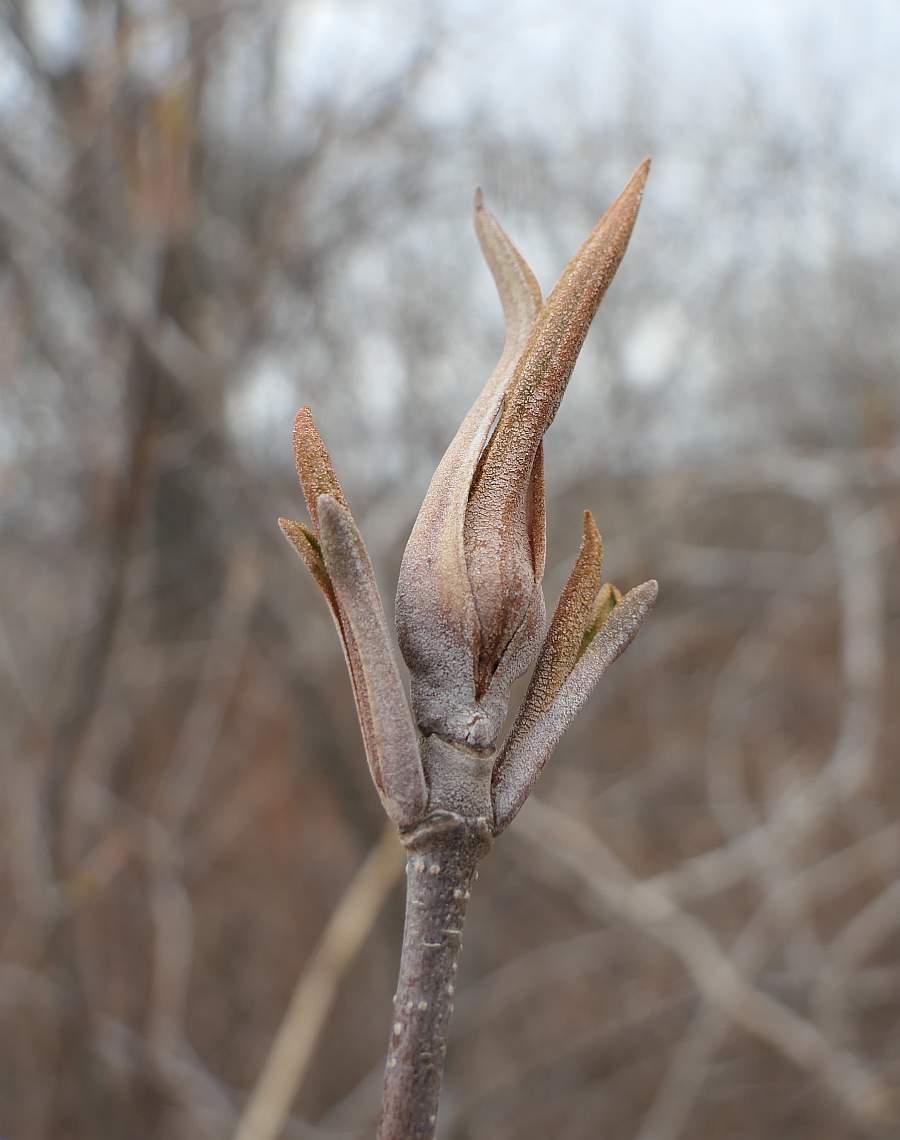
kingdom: Plantae
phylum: Tracheophyta
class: Magnoliopsida
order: Dipsacales
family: Viburnaceae
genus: Viburnum
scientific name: Viburnum lentago
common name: Black haw
